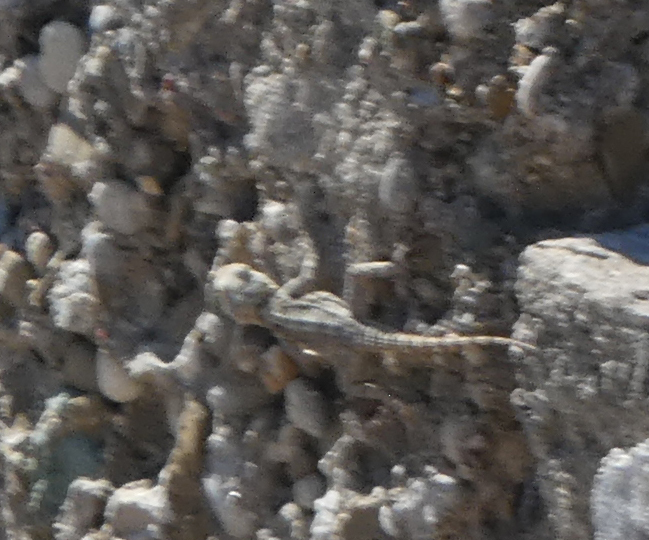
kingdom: Animalia
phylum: Chordata
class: Squamata
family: Agamidae
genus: Stellagama
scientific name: Stellagama stellio
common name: Starred agama
